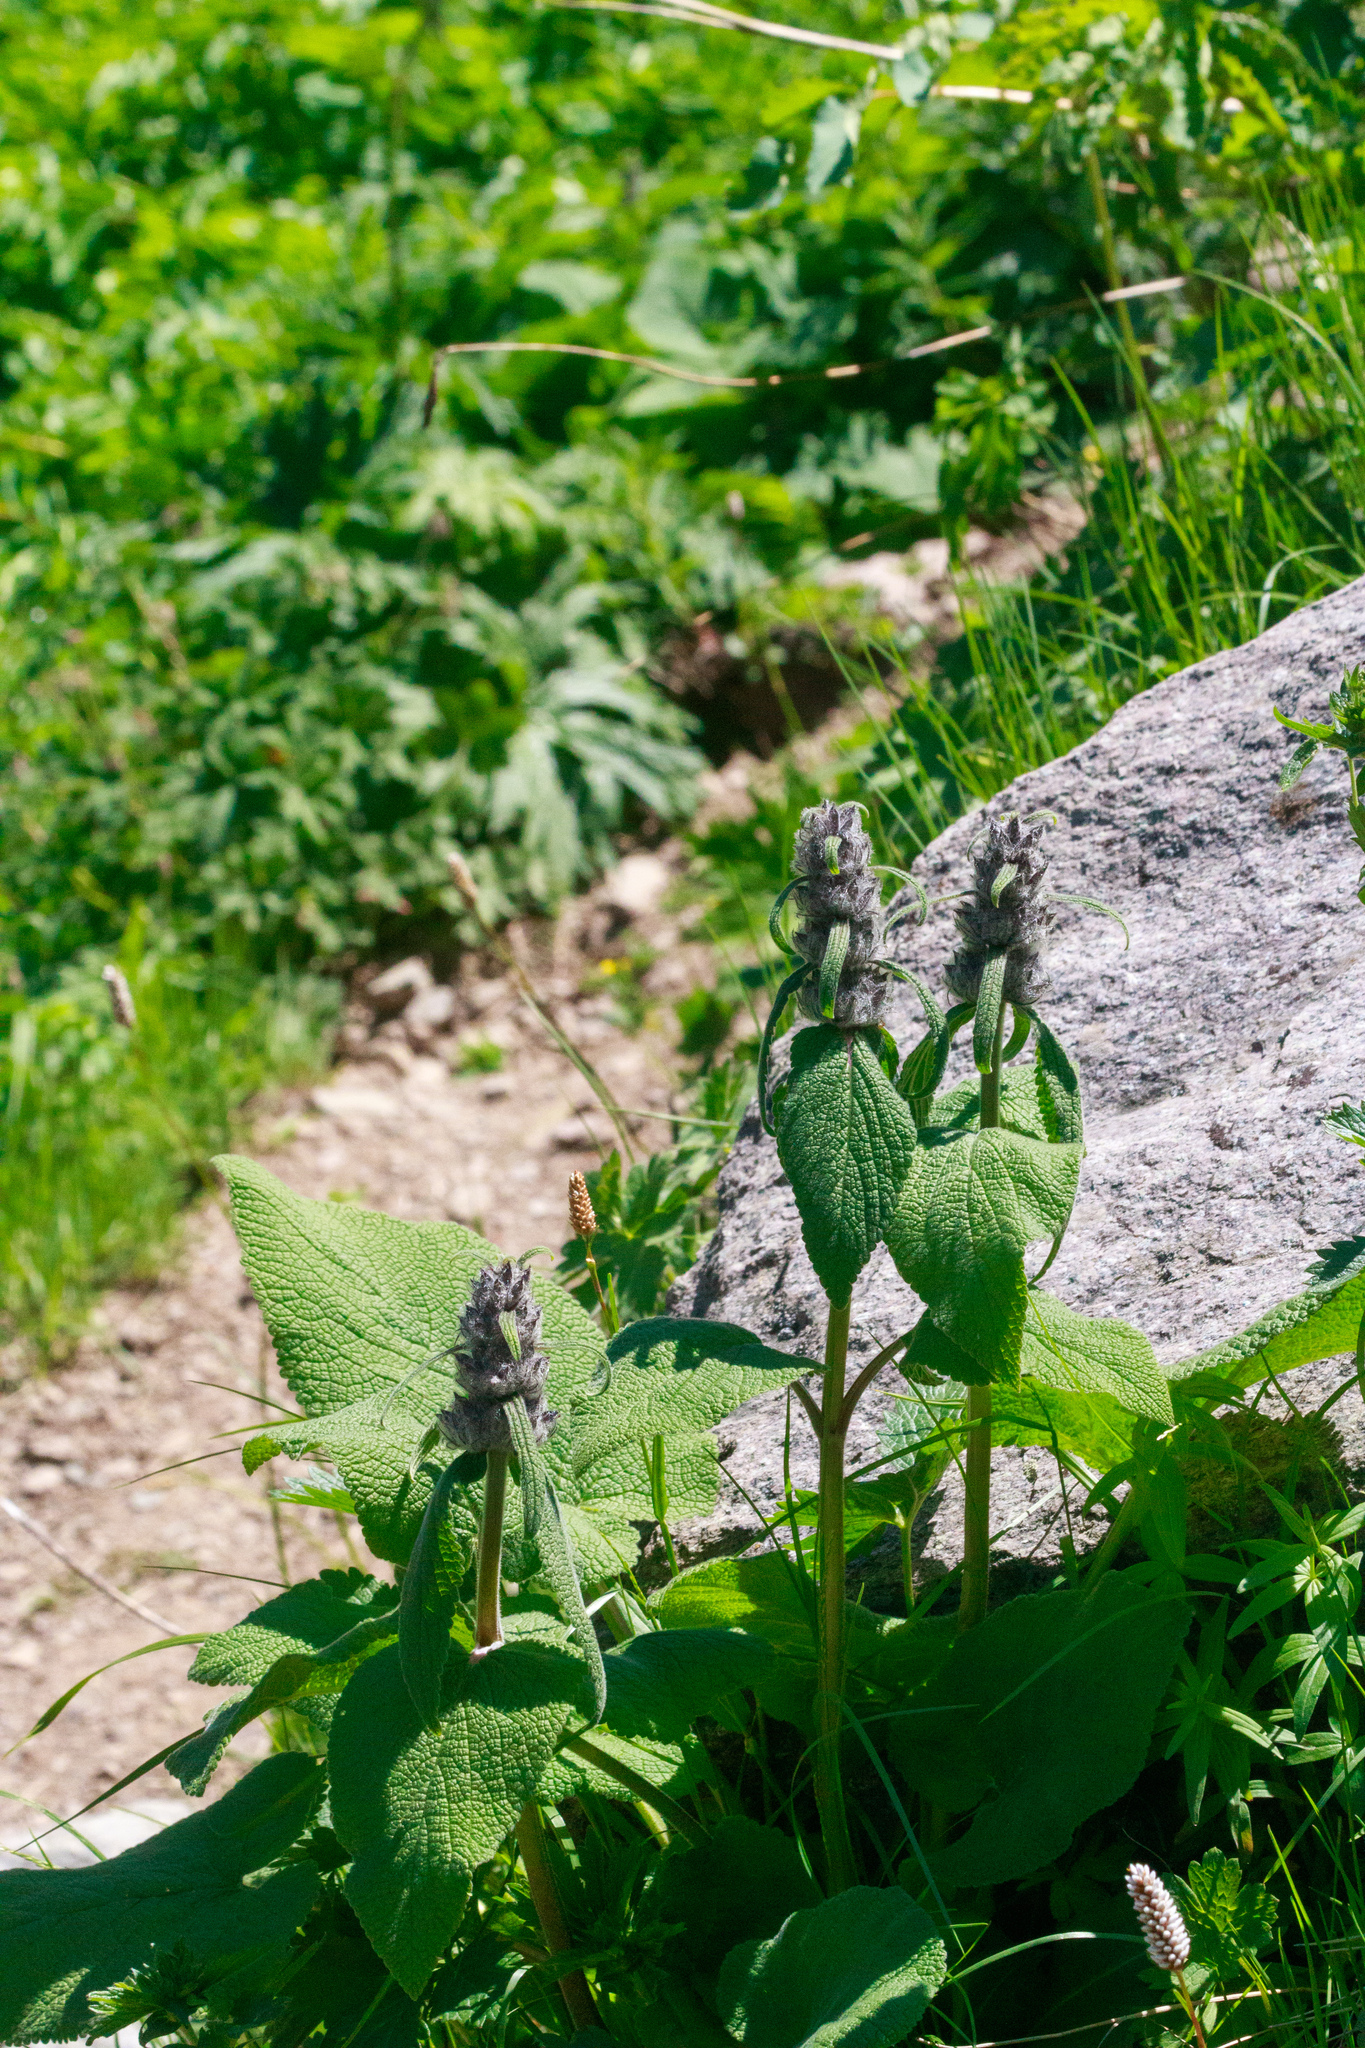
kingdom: Plantae
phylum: Tracheophyta
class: Magnoliopsida
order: Lamiales
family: Lamiaceae
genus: Phlomoides
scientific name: Phlomoides oreophila
